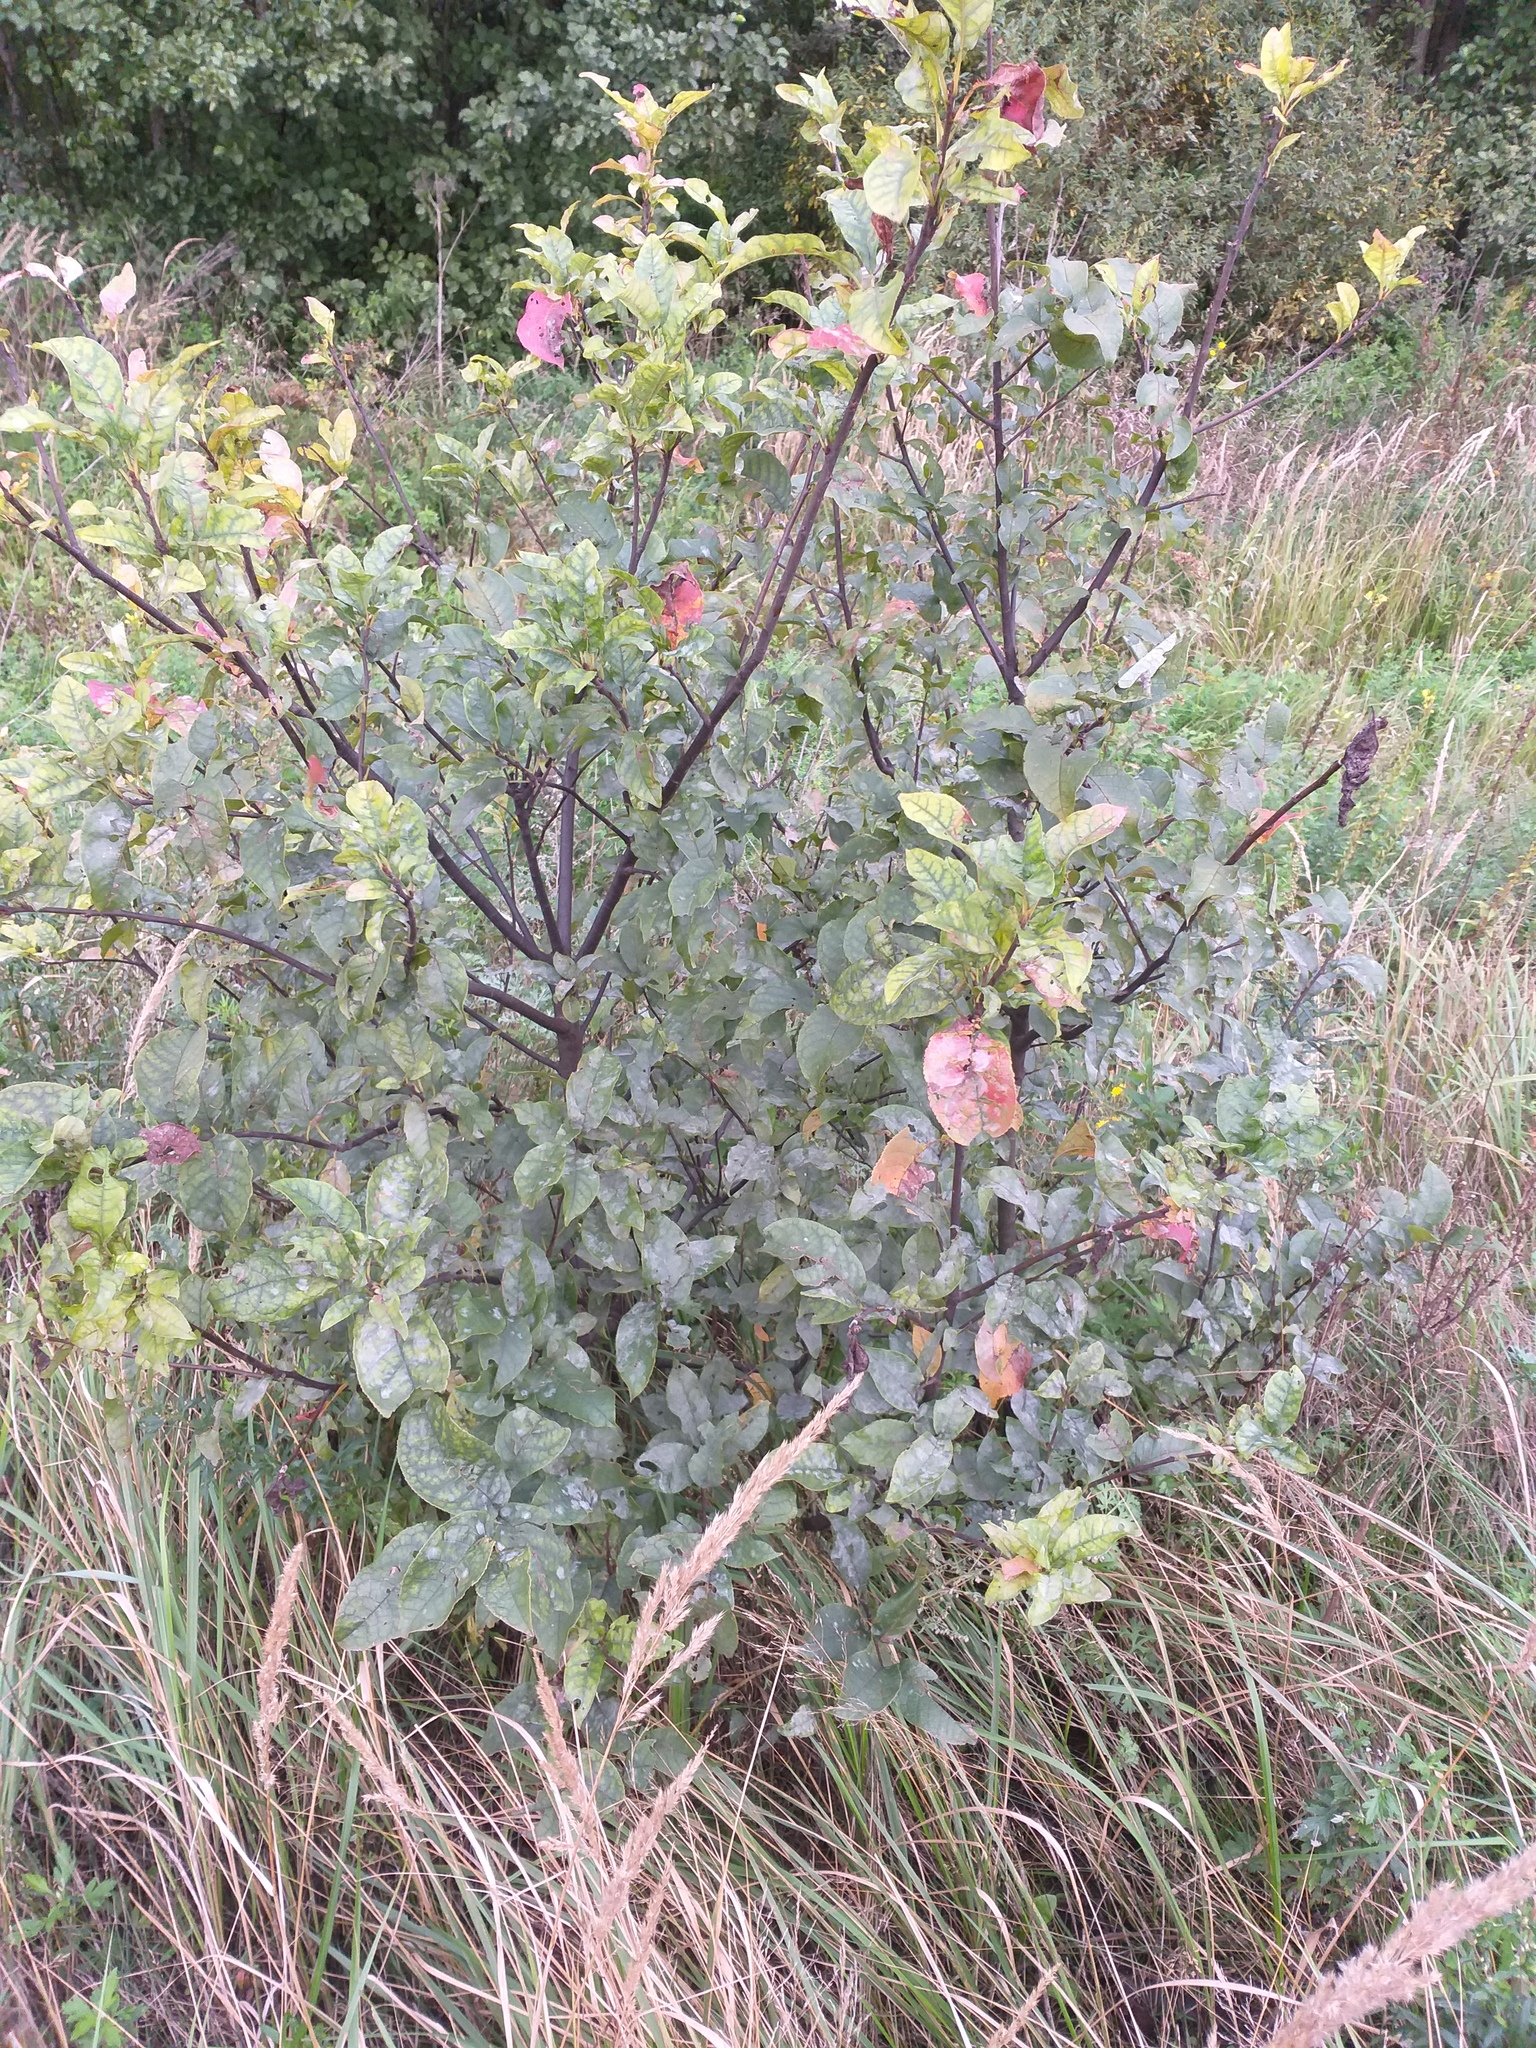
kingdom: Plantae
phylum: Tracheophyta
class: Magnoliopsida
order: Rosales
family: Rosaceae
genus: Prunus
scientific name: Prunus padus
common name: Bird cherry
